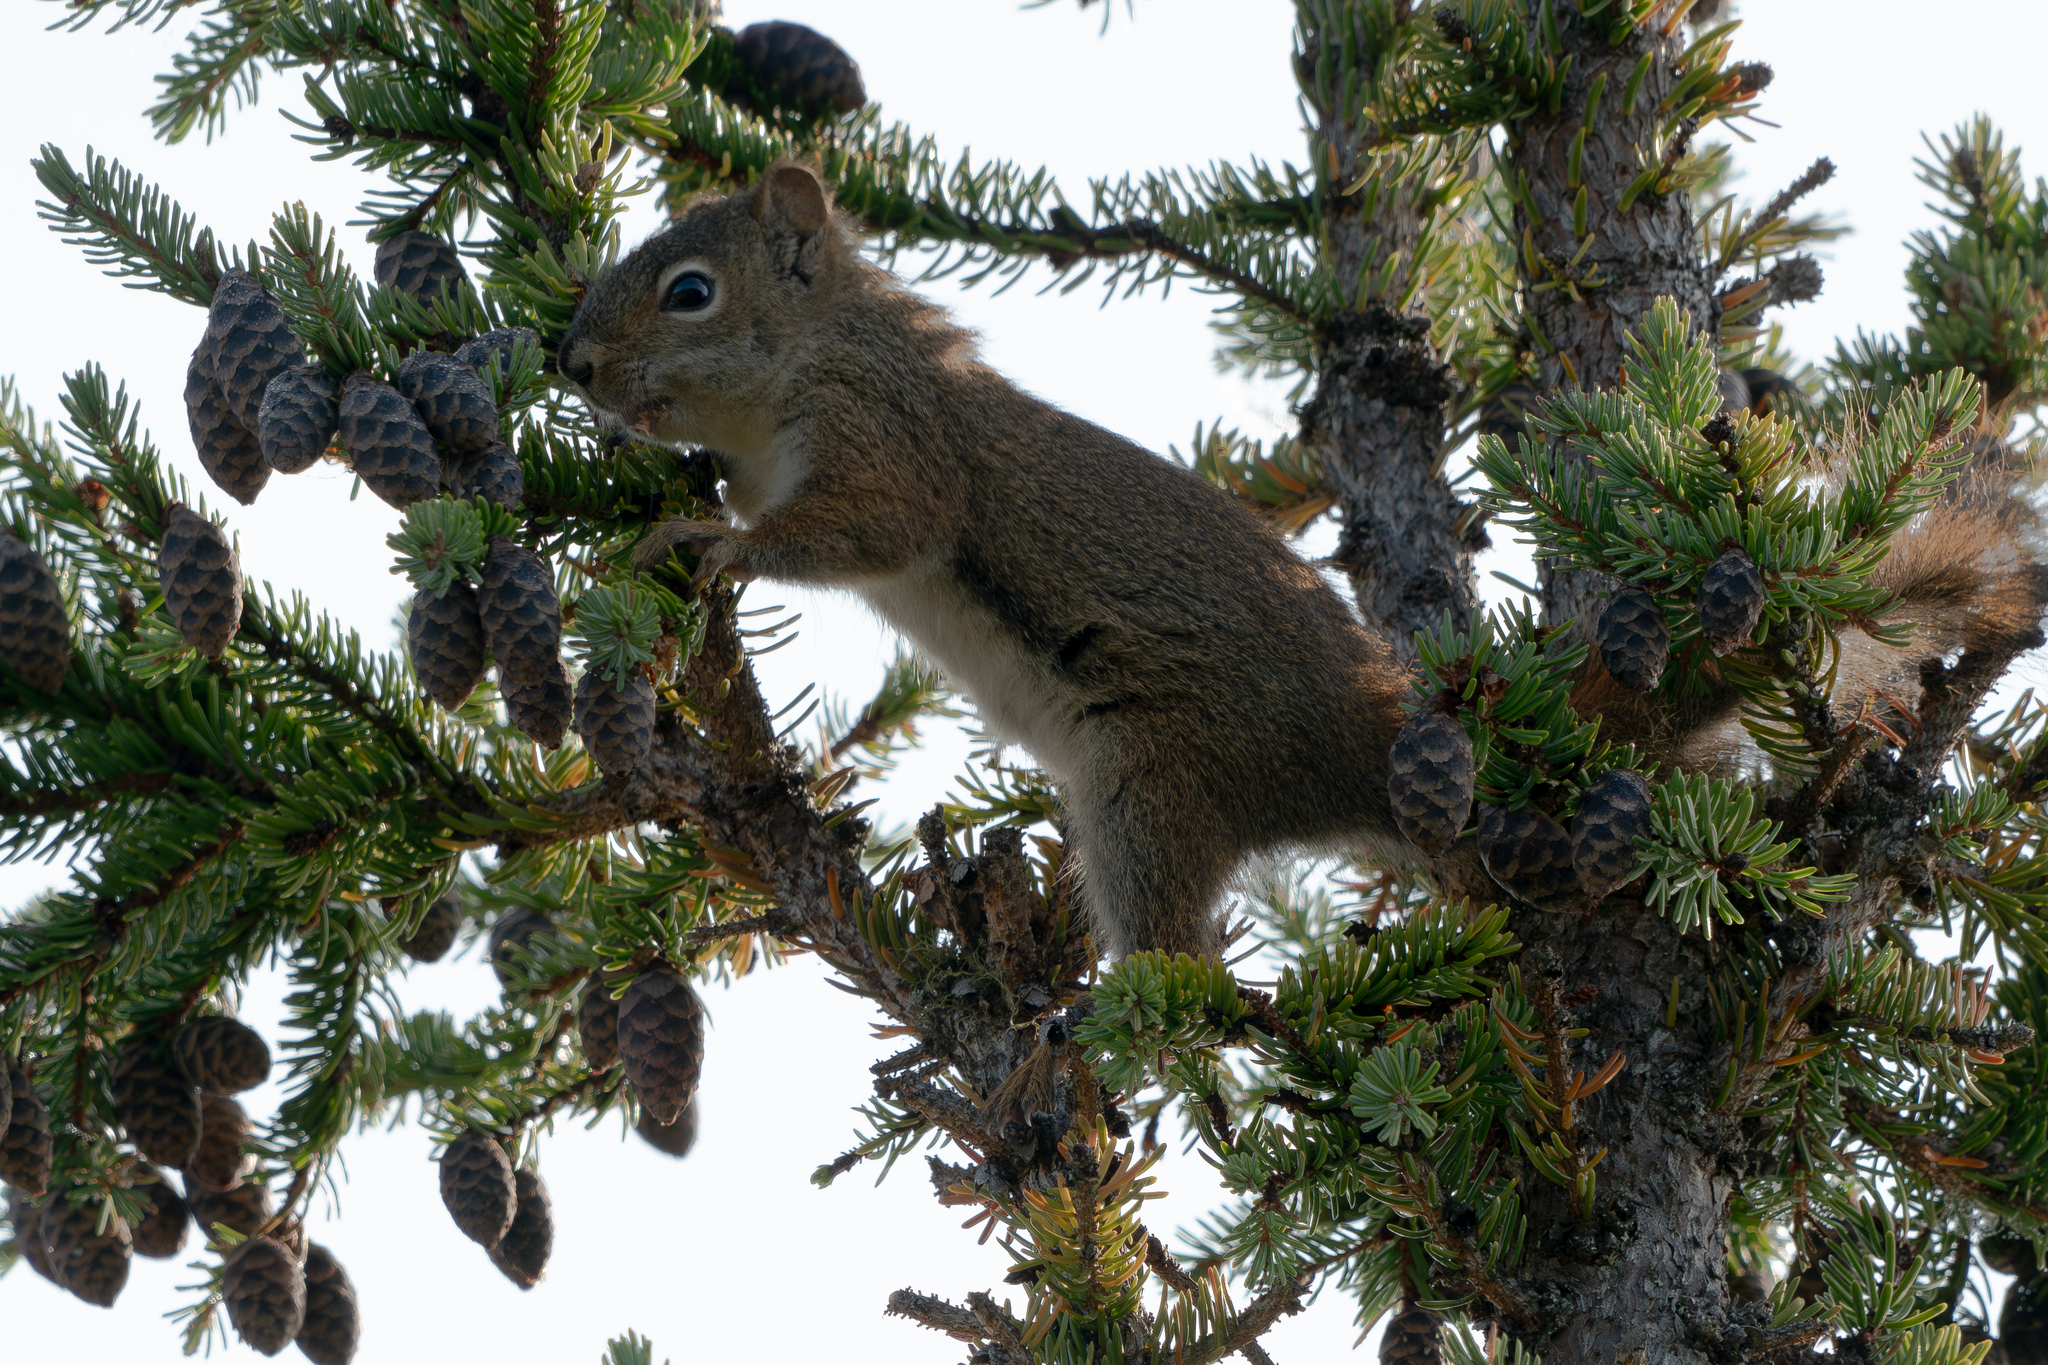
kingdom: Animalia
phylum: Chordata
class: Mammalia
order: Rodentia
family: Sciuridae
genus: Tamiasciurus
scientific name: Tamiasciurus hudsonicus
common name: Red squirrel
